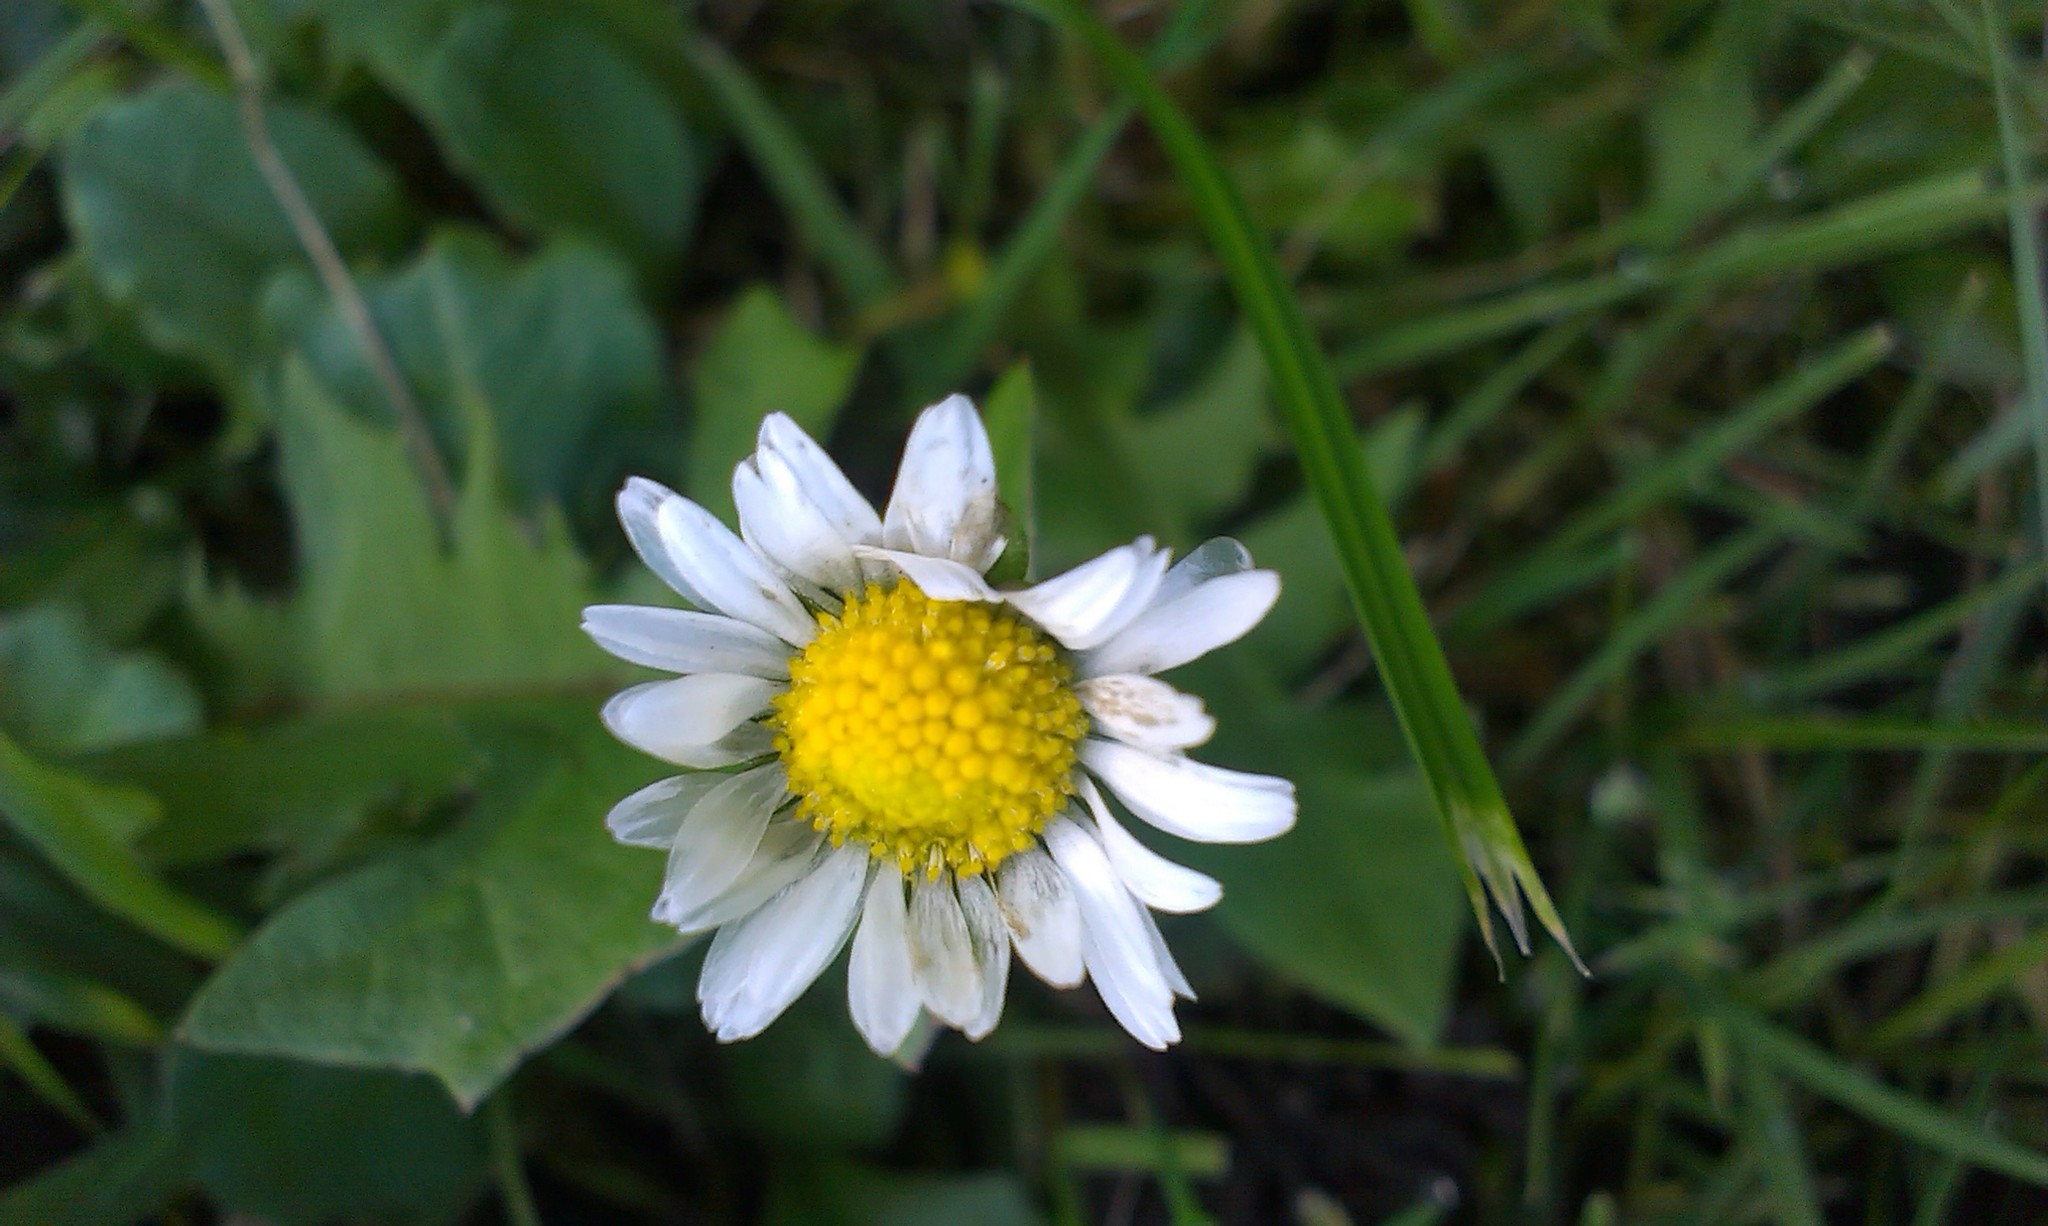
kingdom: Plantae
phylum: Tracheophyta
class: Magnoliopsida
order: Asterales
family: Asteraceae
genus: Bellis
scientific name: Bellis perennis
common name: Lawndaisy
